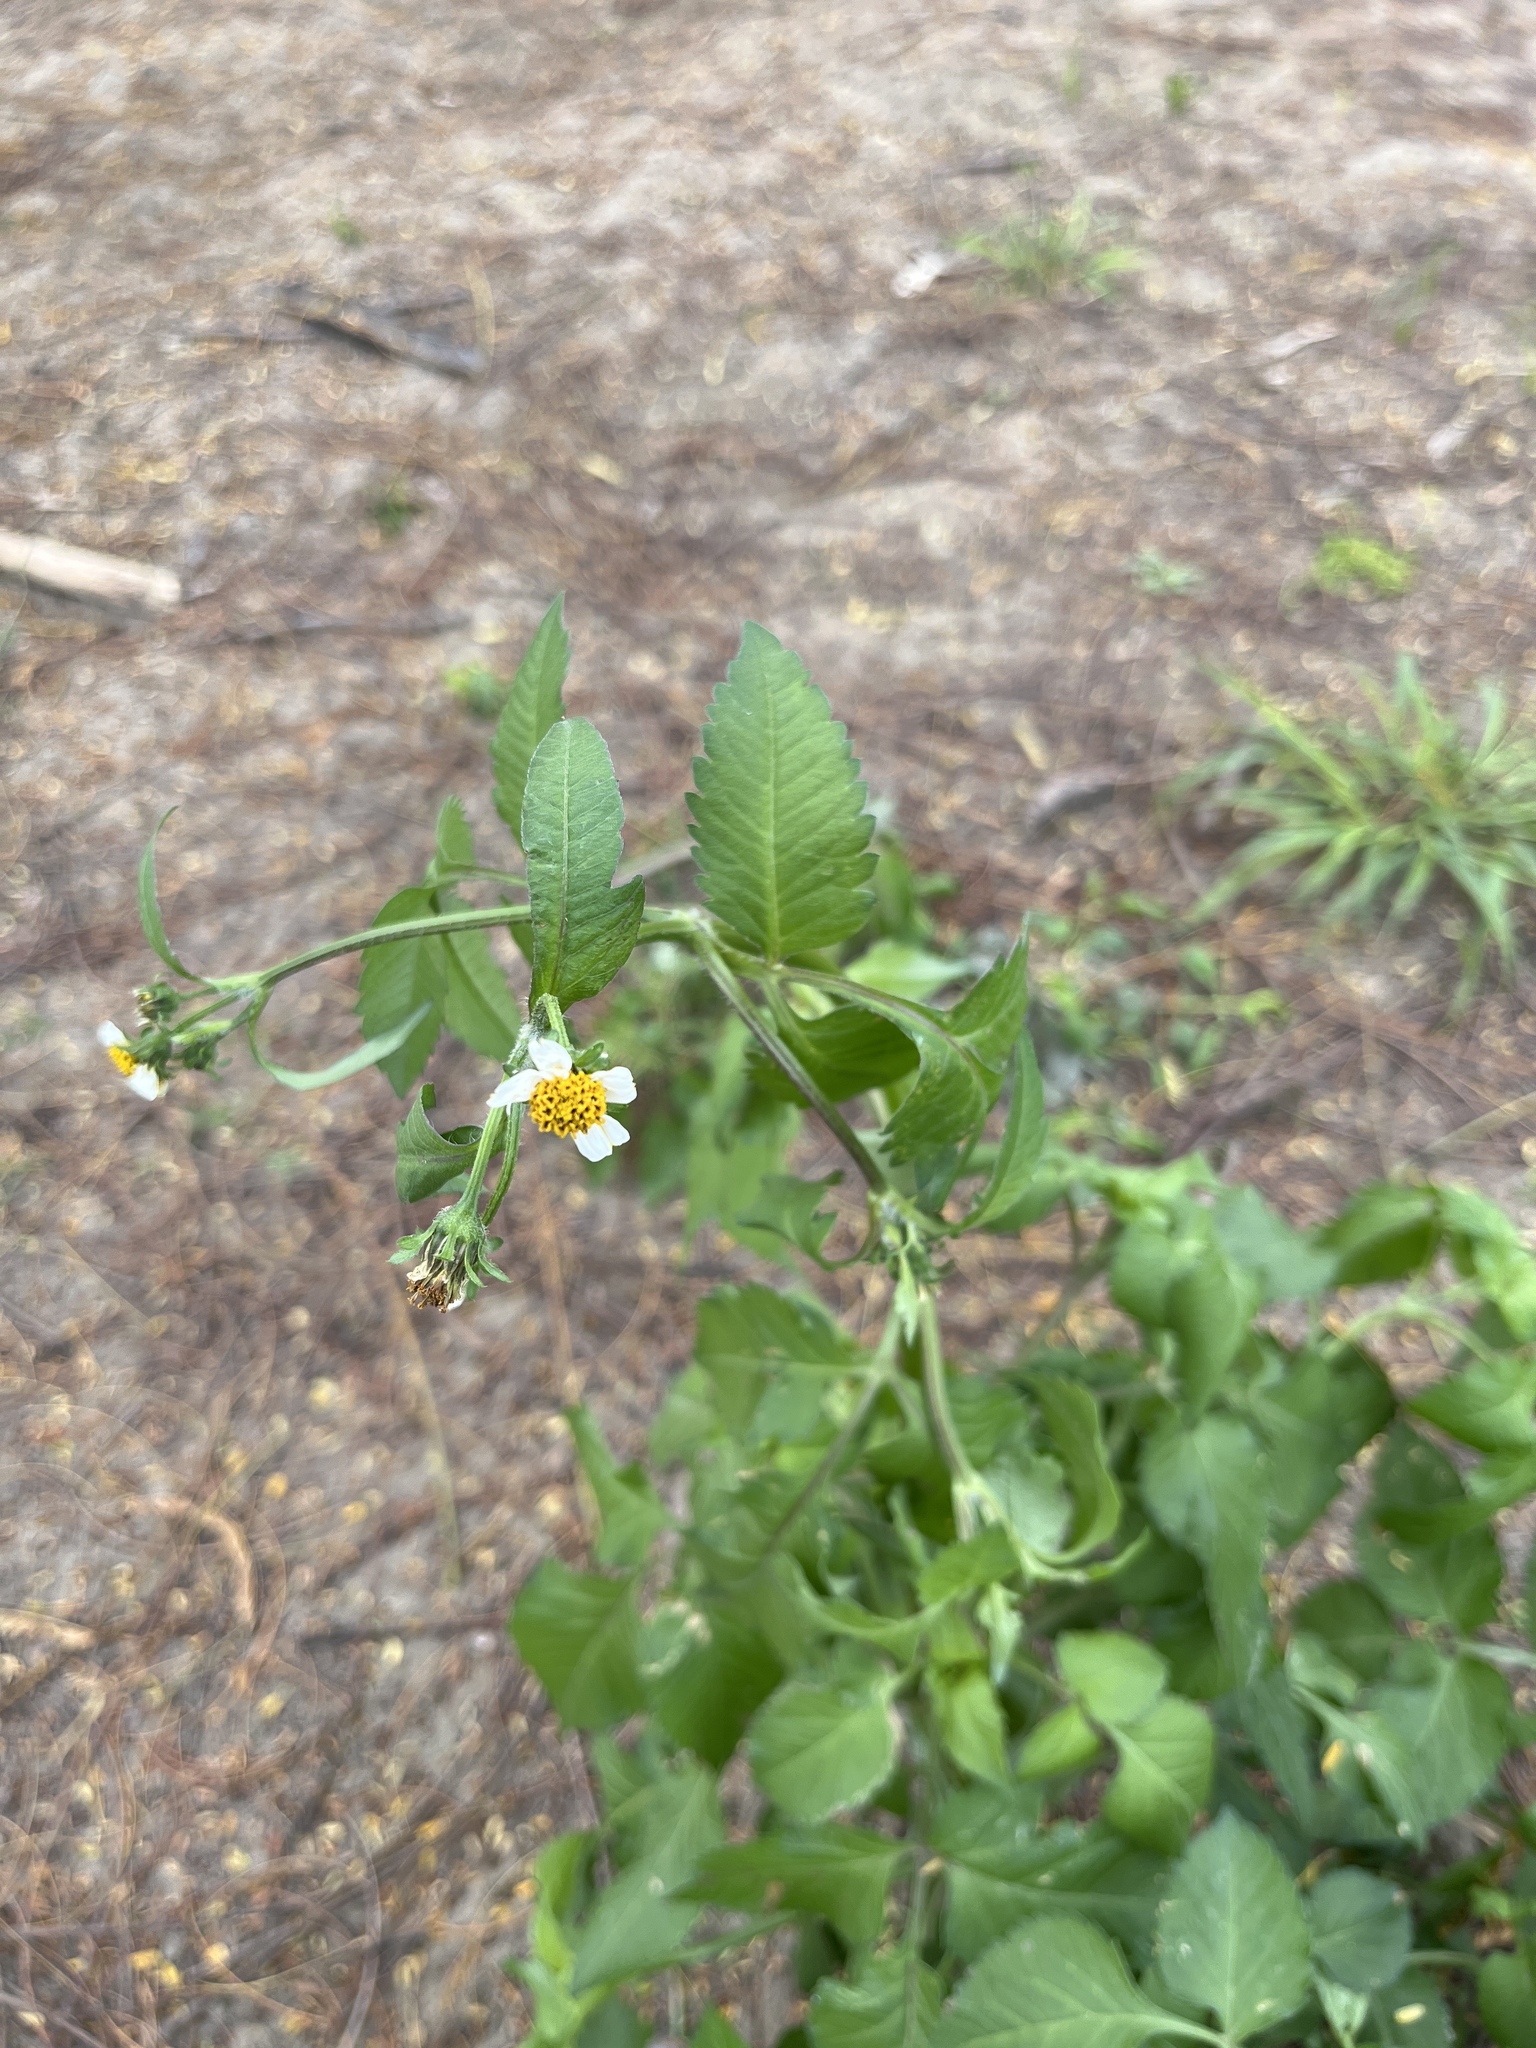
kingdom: Plantae
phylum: Tracheophyta
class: Magnoliopsida
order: Asterales
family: Asteraceae
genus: Bidens
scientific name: Bidens pilosa
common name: Black-jack
